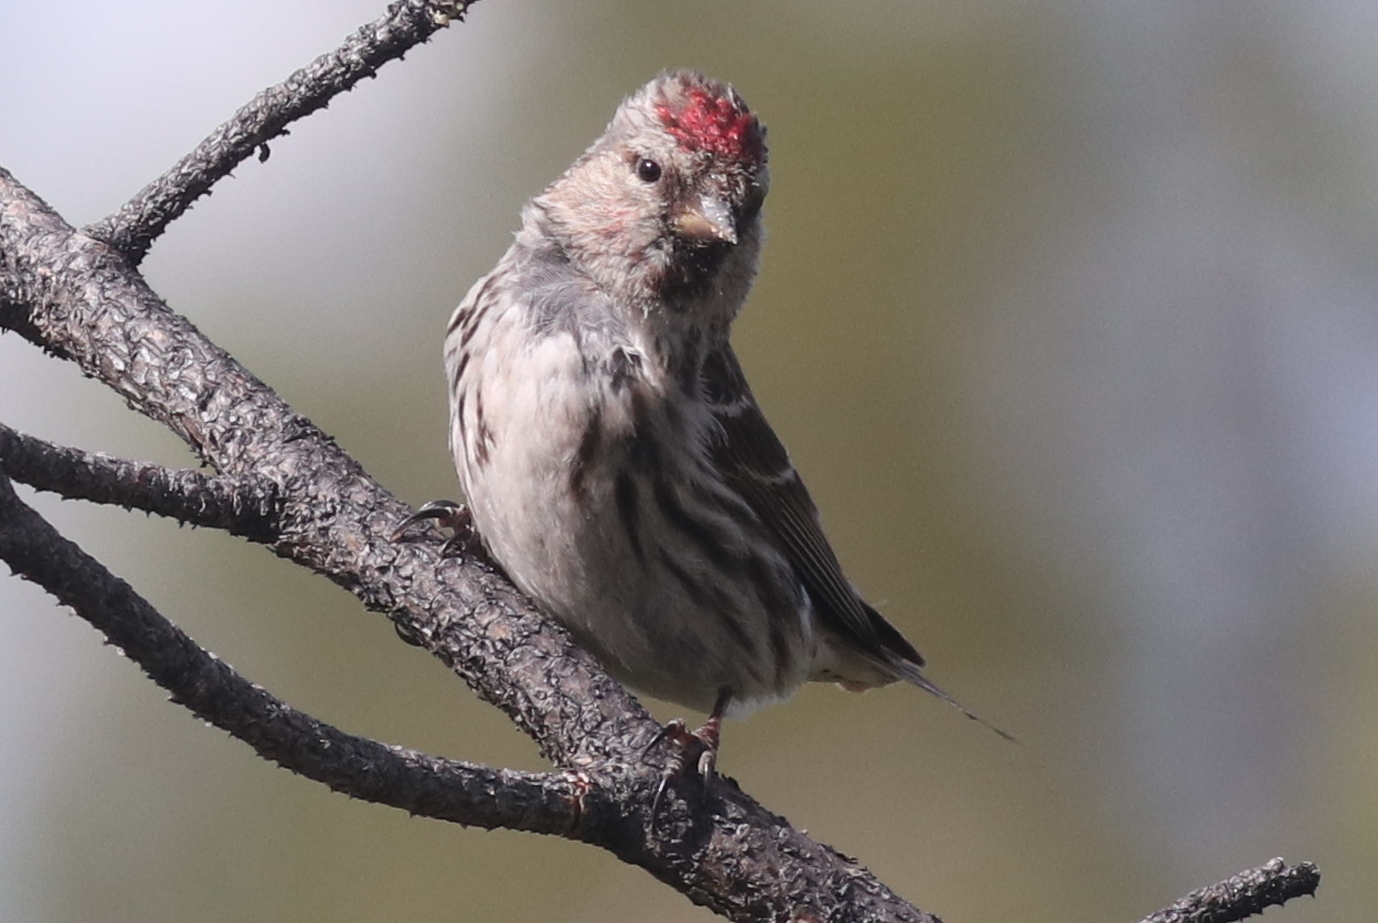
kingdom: Animalia
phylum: Chordata
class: Aves
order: Passeriformes
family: Fringillidae
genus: Acanthis
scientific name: Acanthis flammea
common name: Common redpoll
